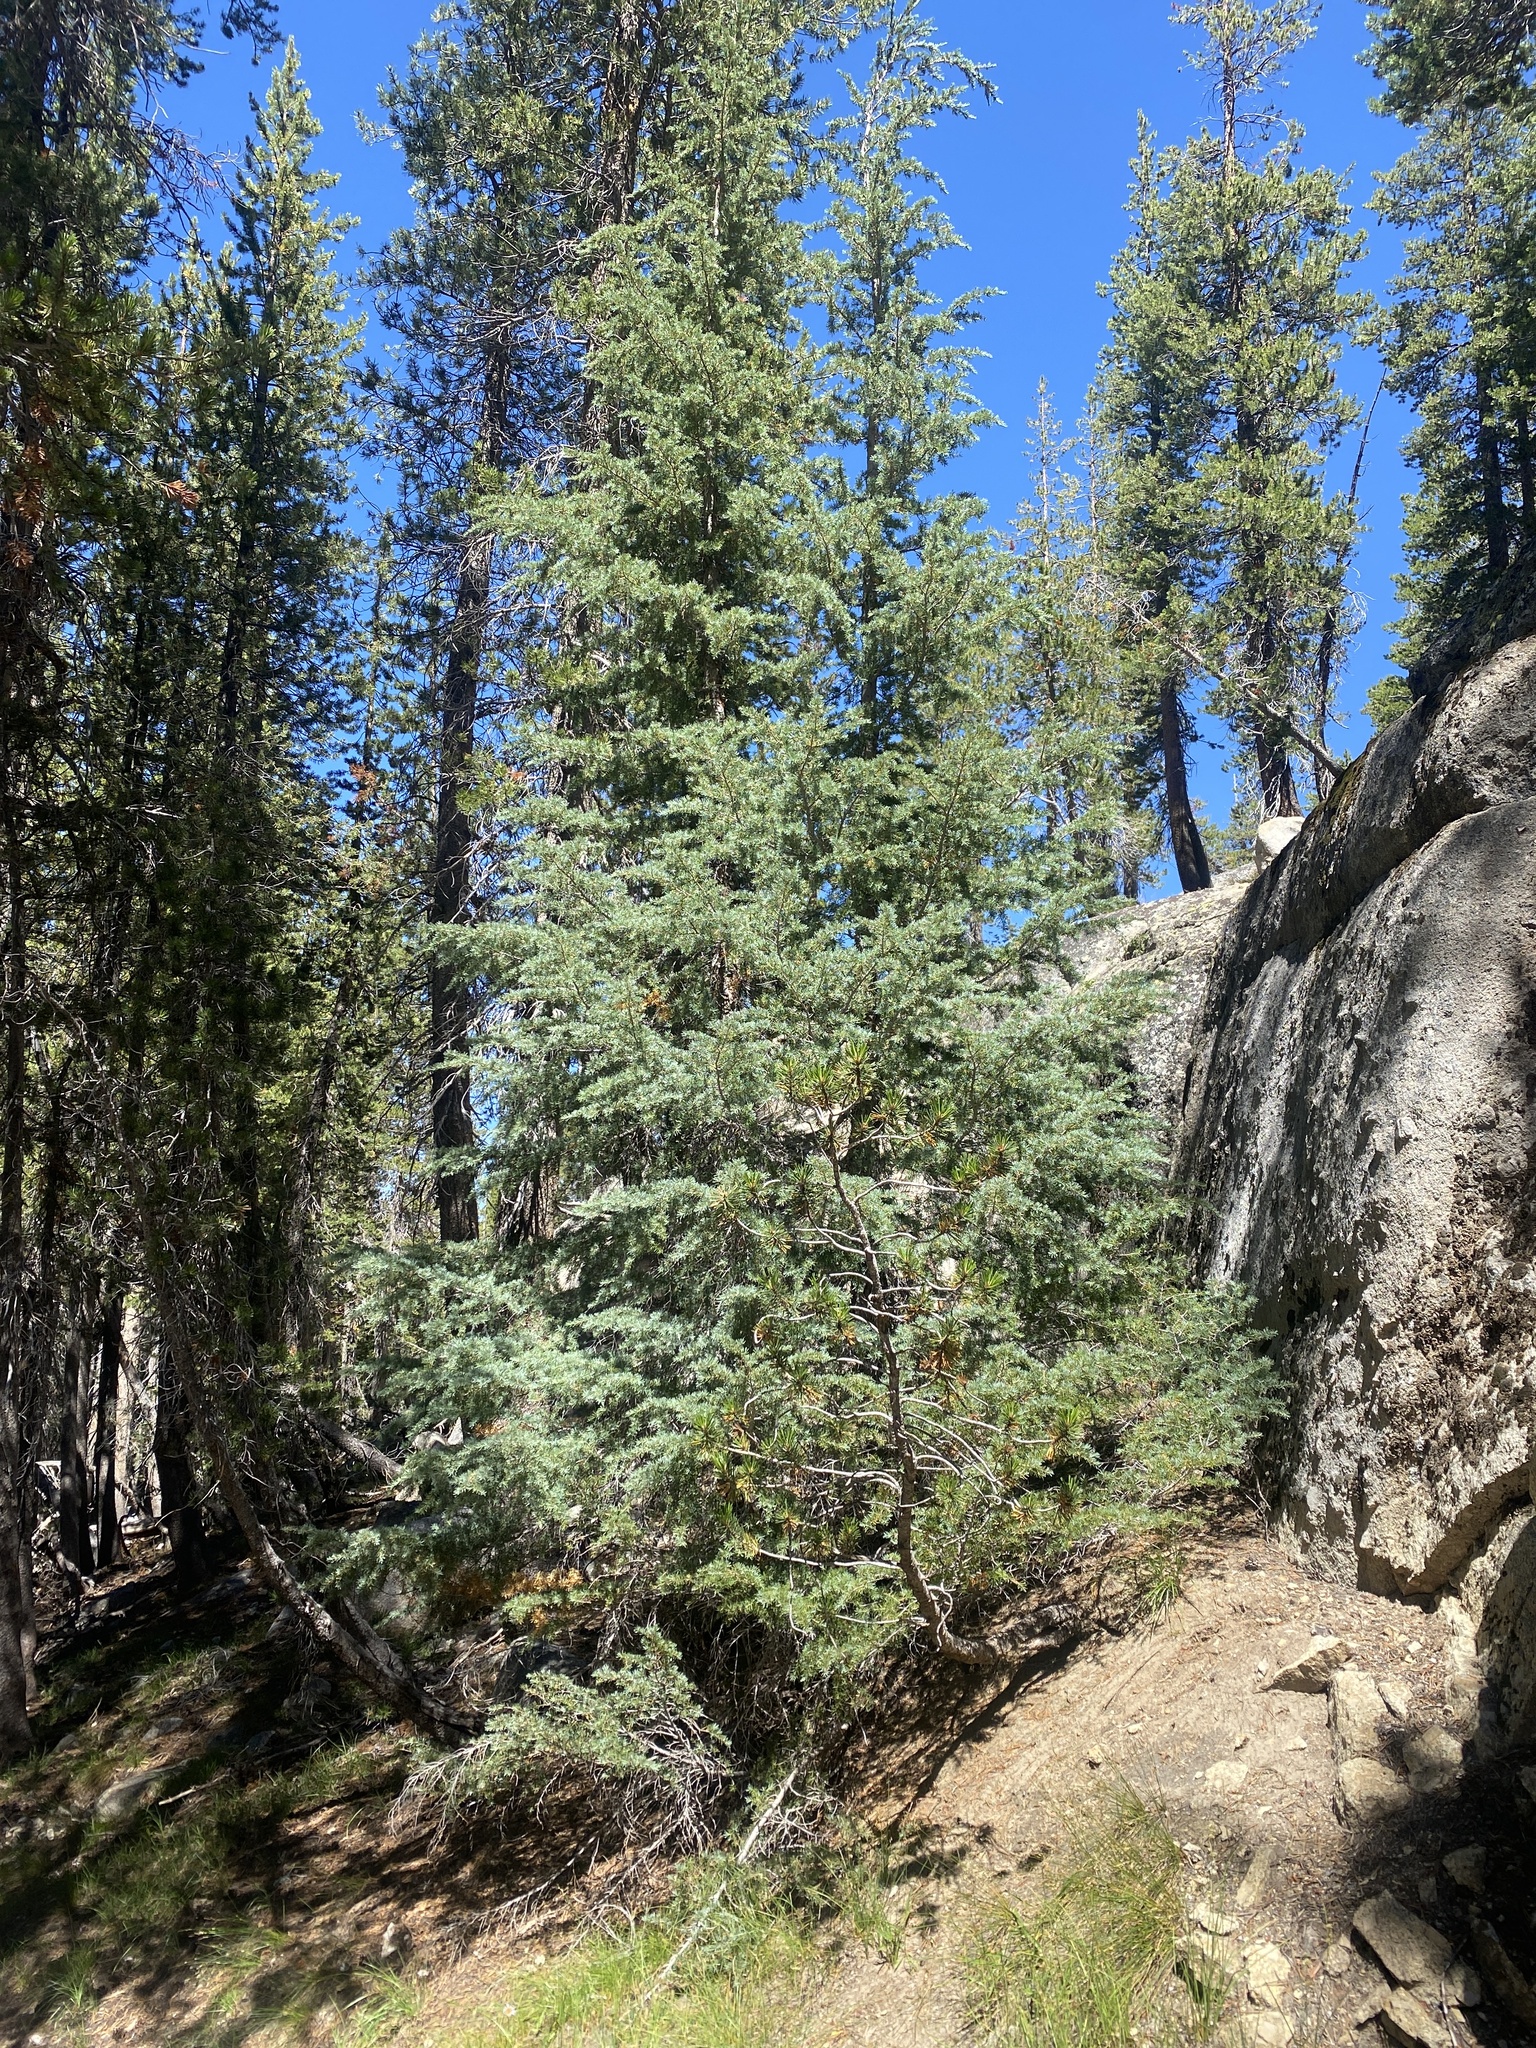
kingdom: Plantae
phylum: Tracheophyta
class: Pinopsida
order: Pinales
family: Pinaceae
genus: Tsuga
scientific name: Tsuga mertensiana
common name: Mountain hemlock
